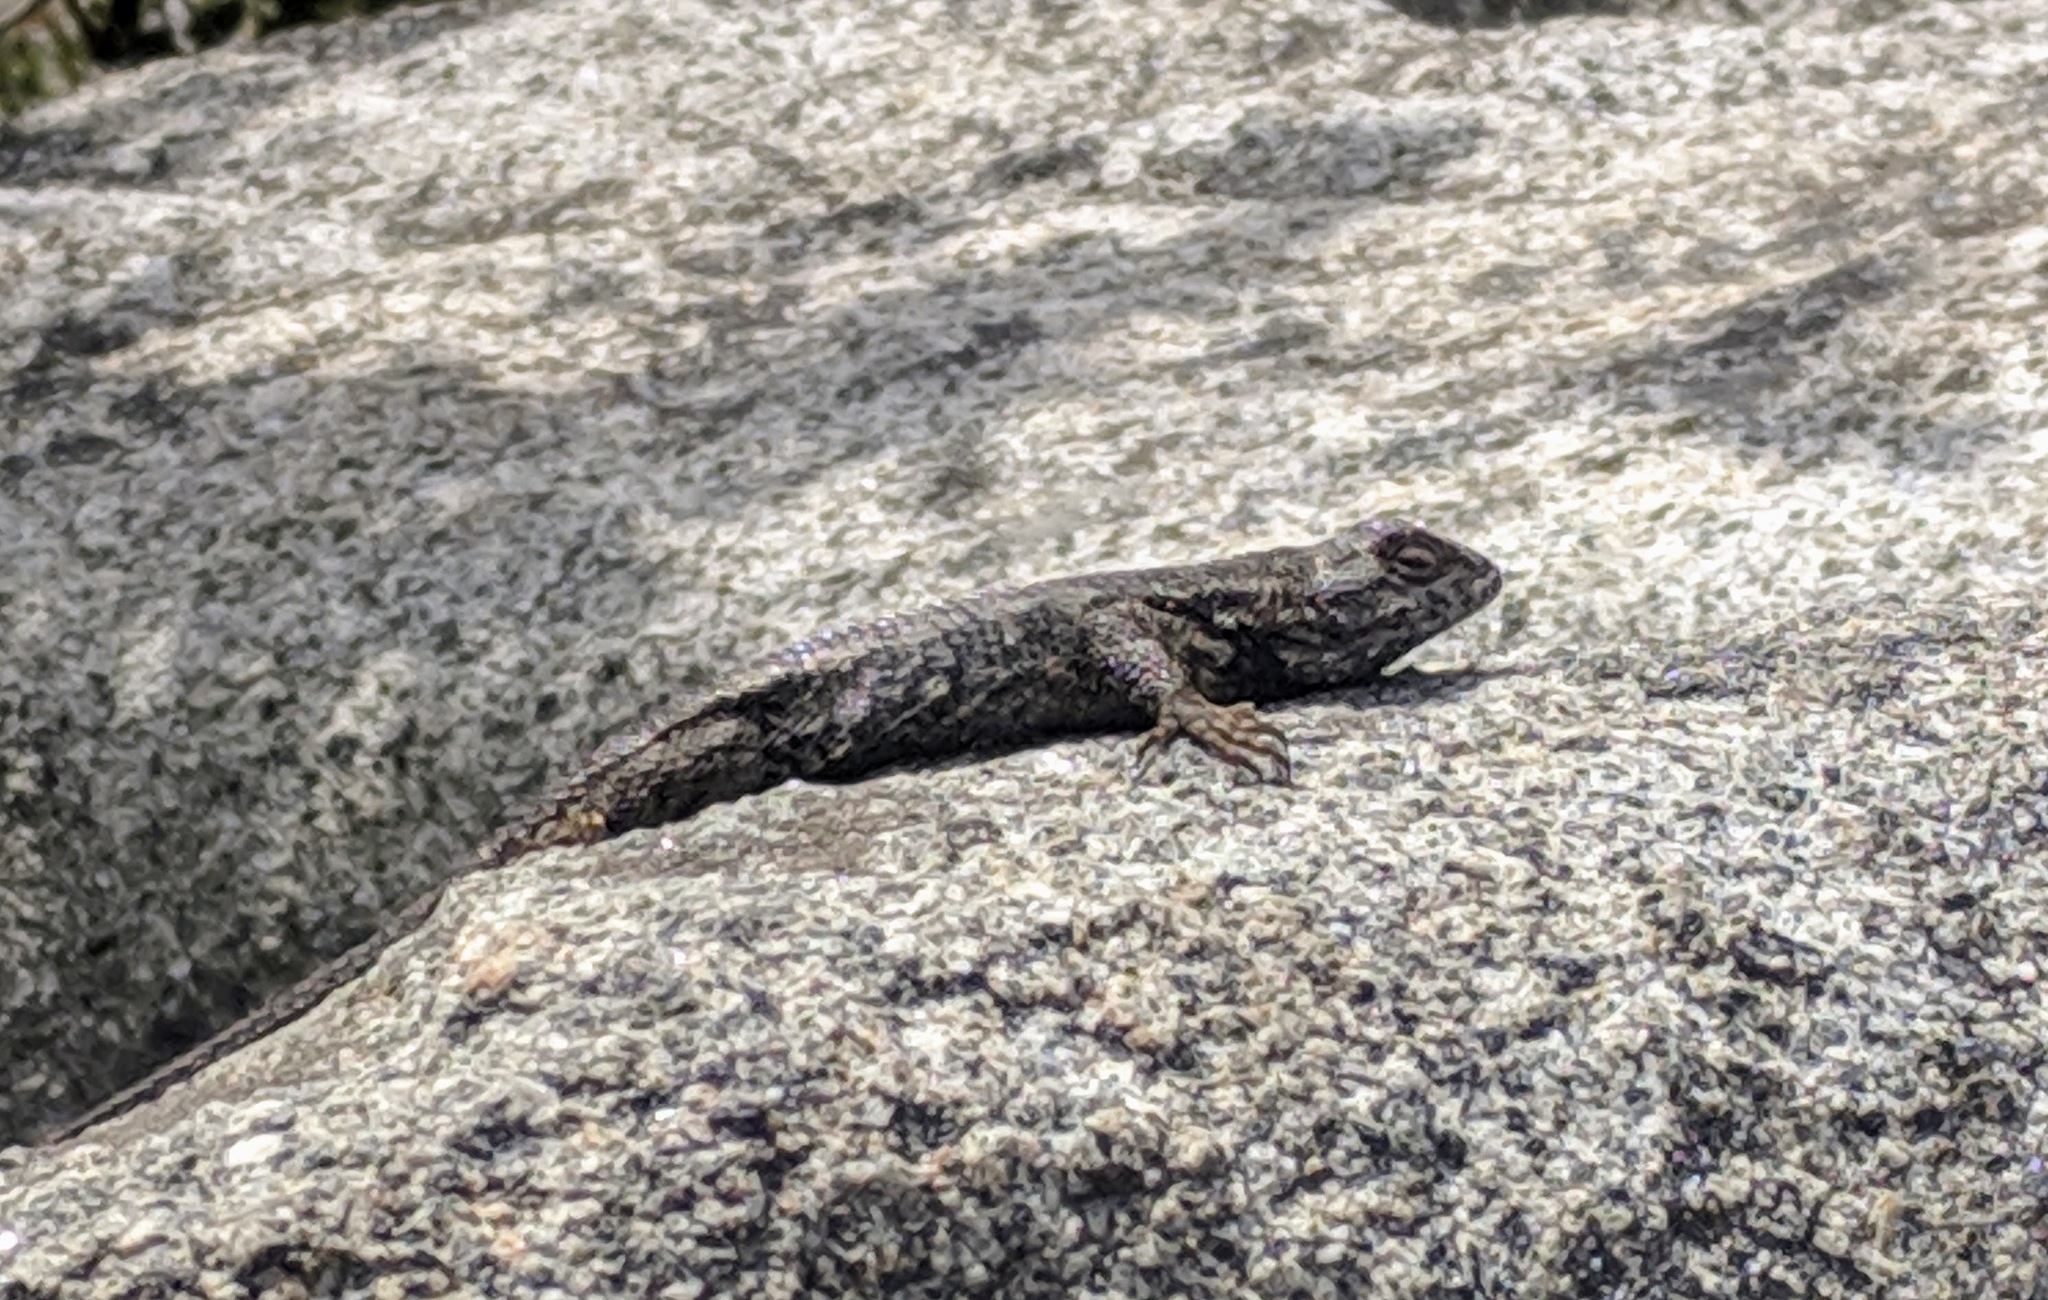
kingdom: Animalia
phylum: Chordata
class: Squamata
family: Phrynosomatidae
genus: Sceloporus
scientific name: Sceloporus occidentalis
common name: Western fence lizard
